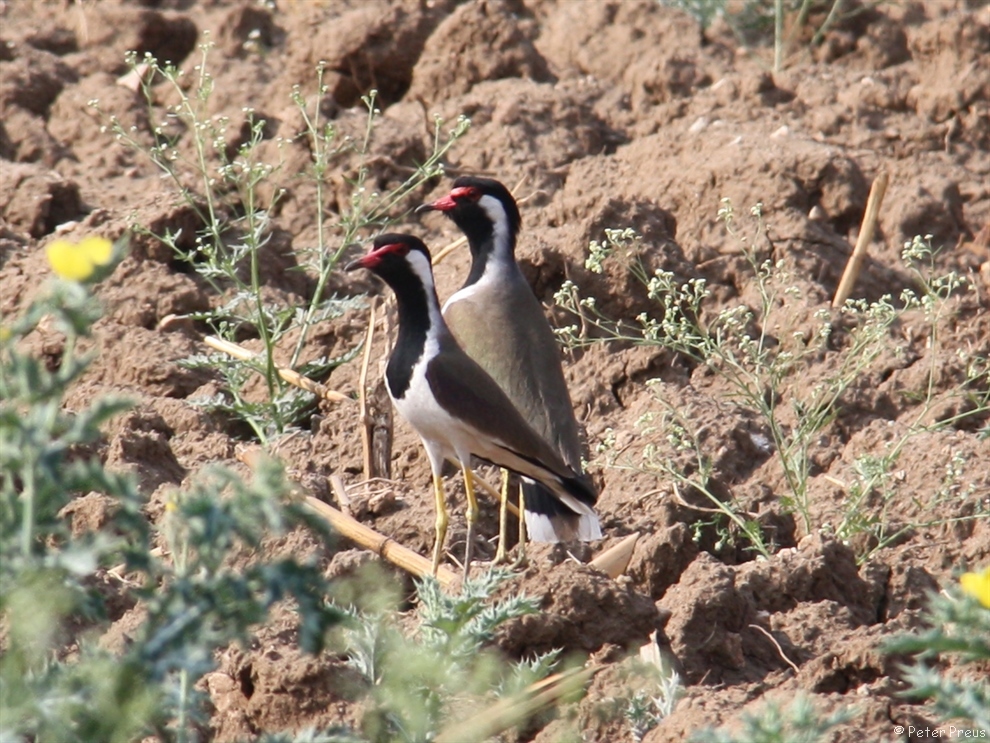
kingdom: Animalia
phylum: Chordata
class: Aves
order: Charadriiformes
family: Charadriidae
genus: Vanellus
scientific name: Vanellus indicus
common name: Red-wattled lapwing
